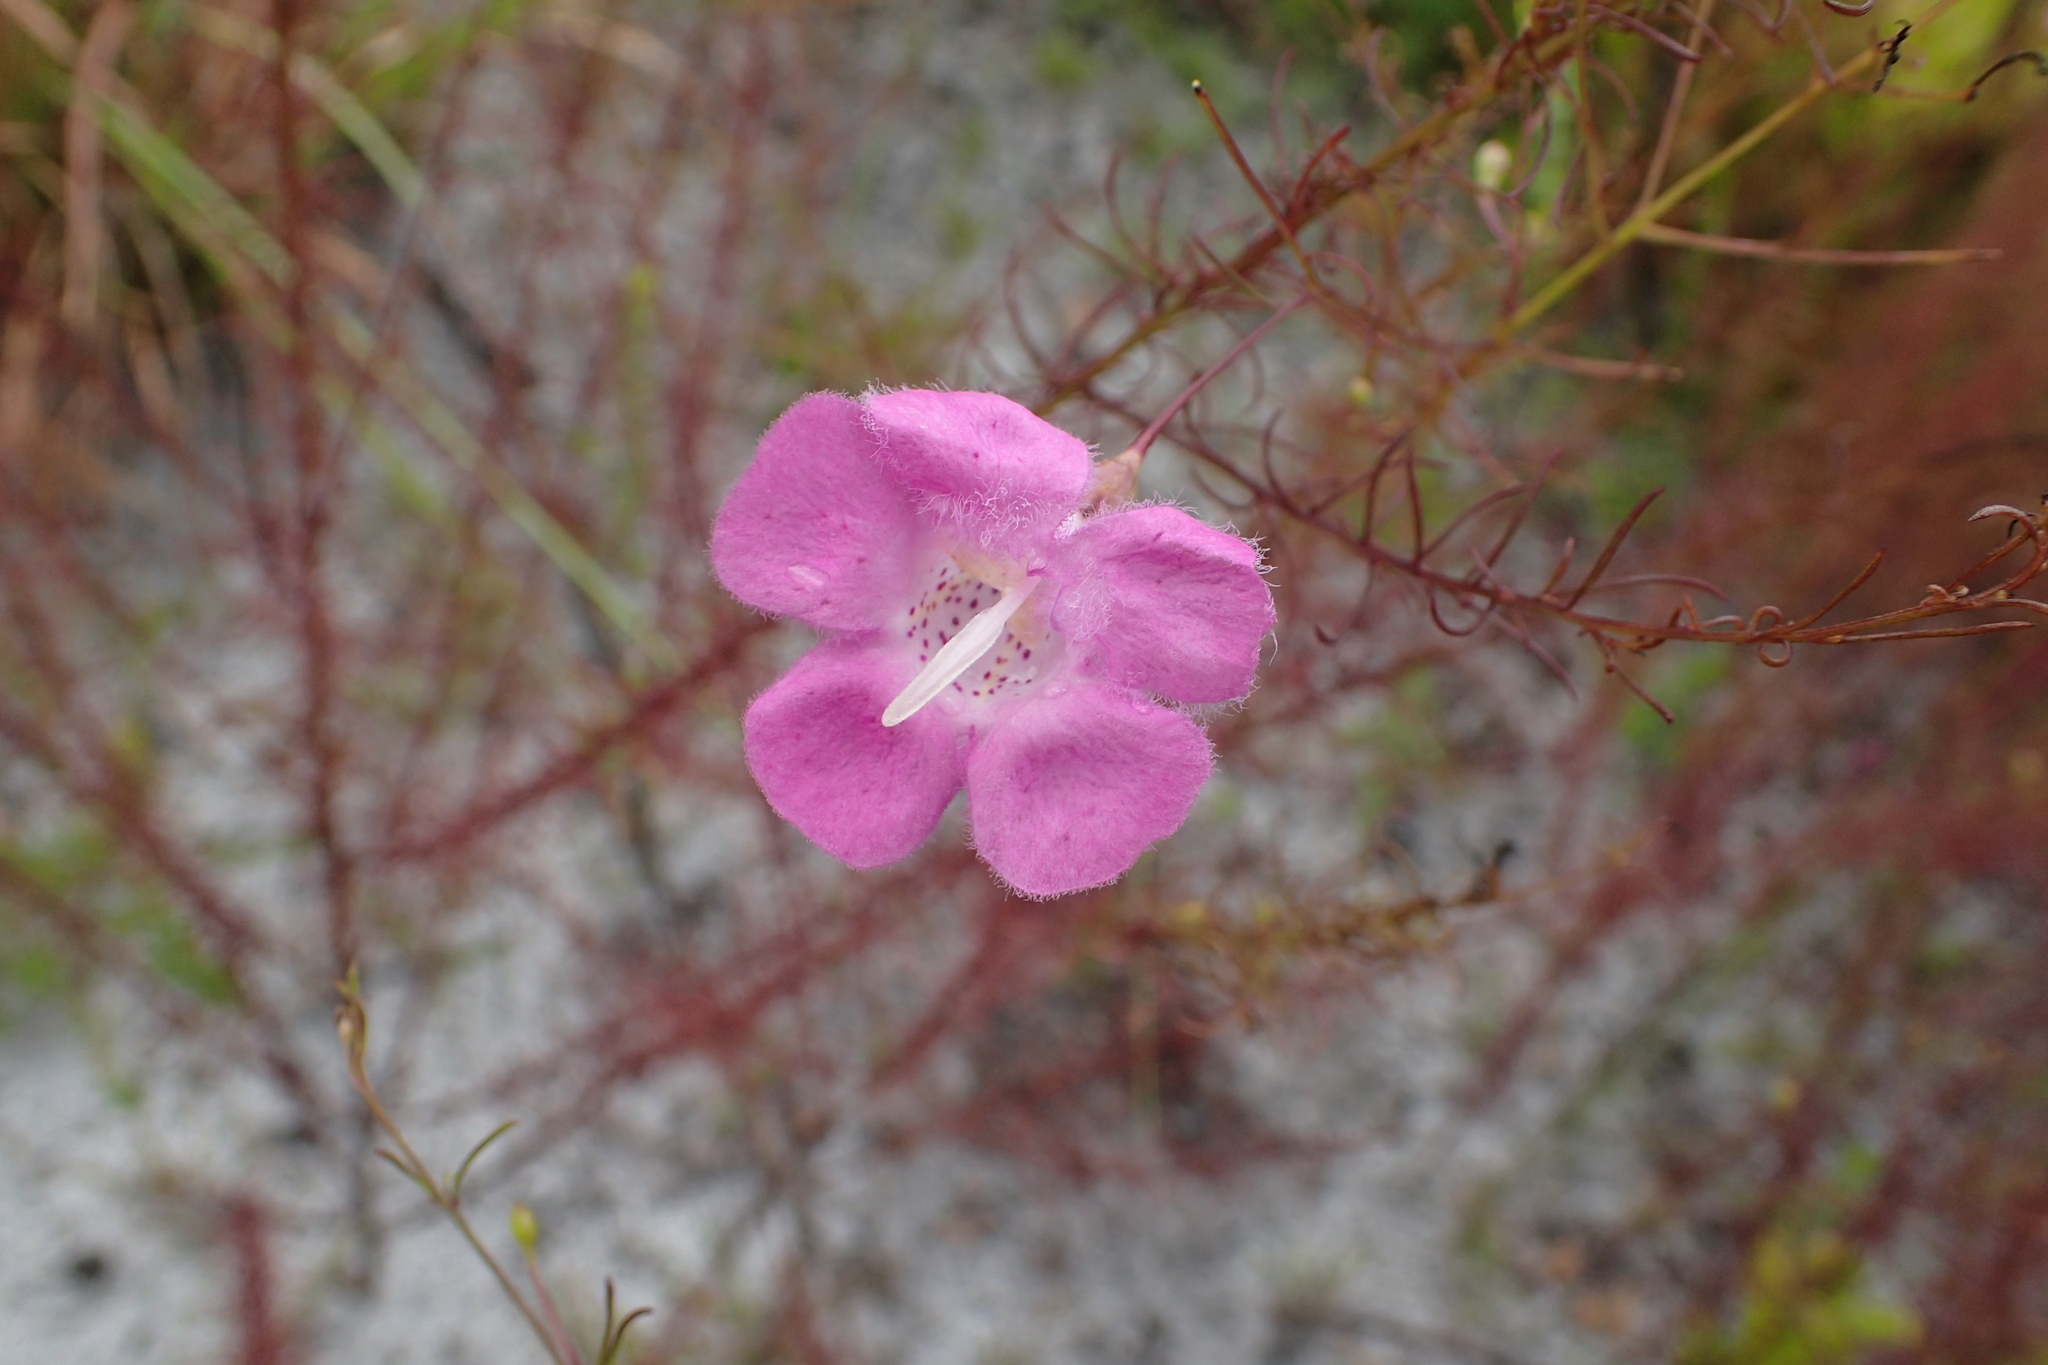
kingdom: Plantae
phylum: Tracheophyta
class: Magnoliopsida
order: Lamiales
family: Orobanchaceae
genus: Agalinis
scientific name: Agalinis filifolia
